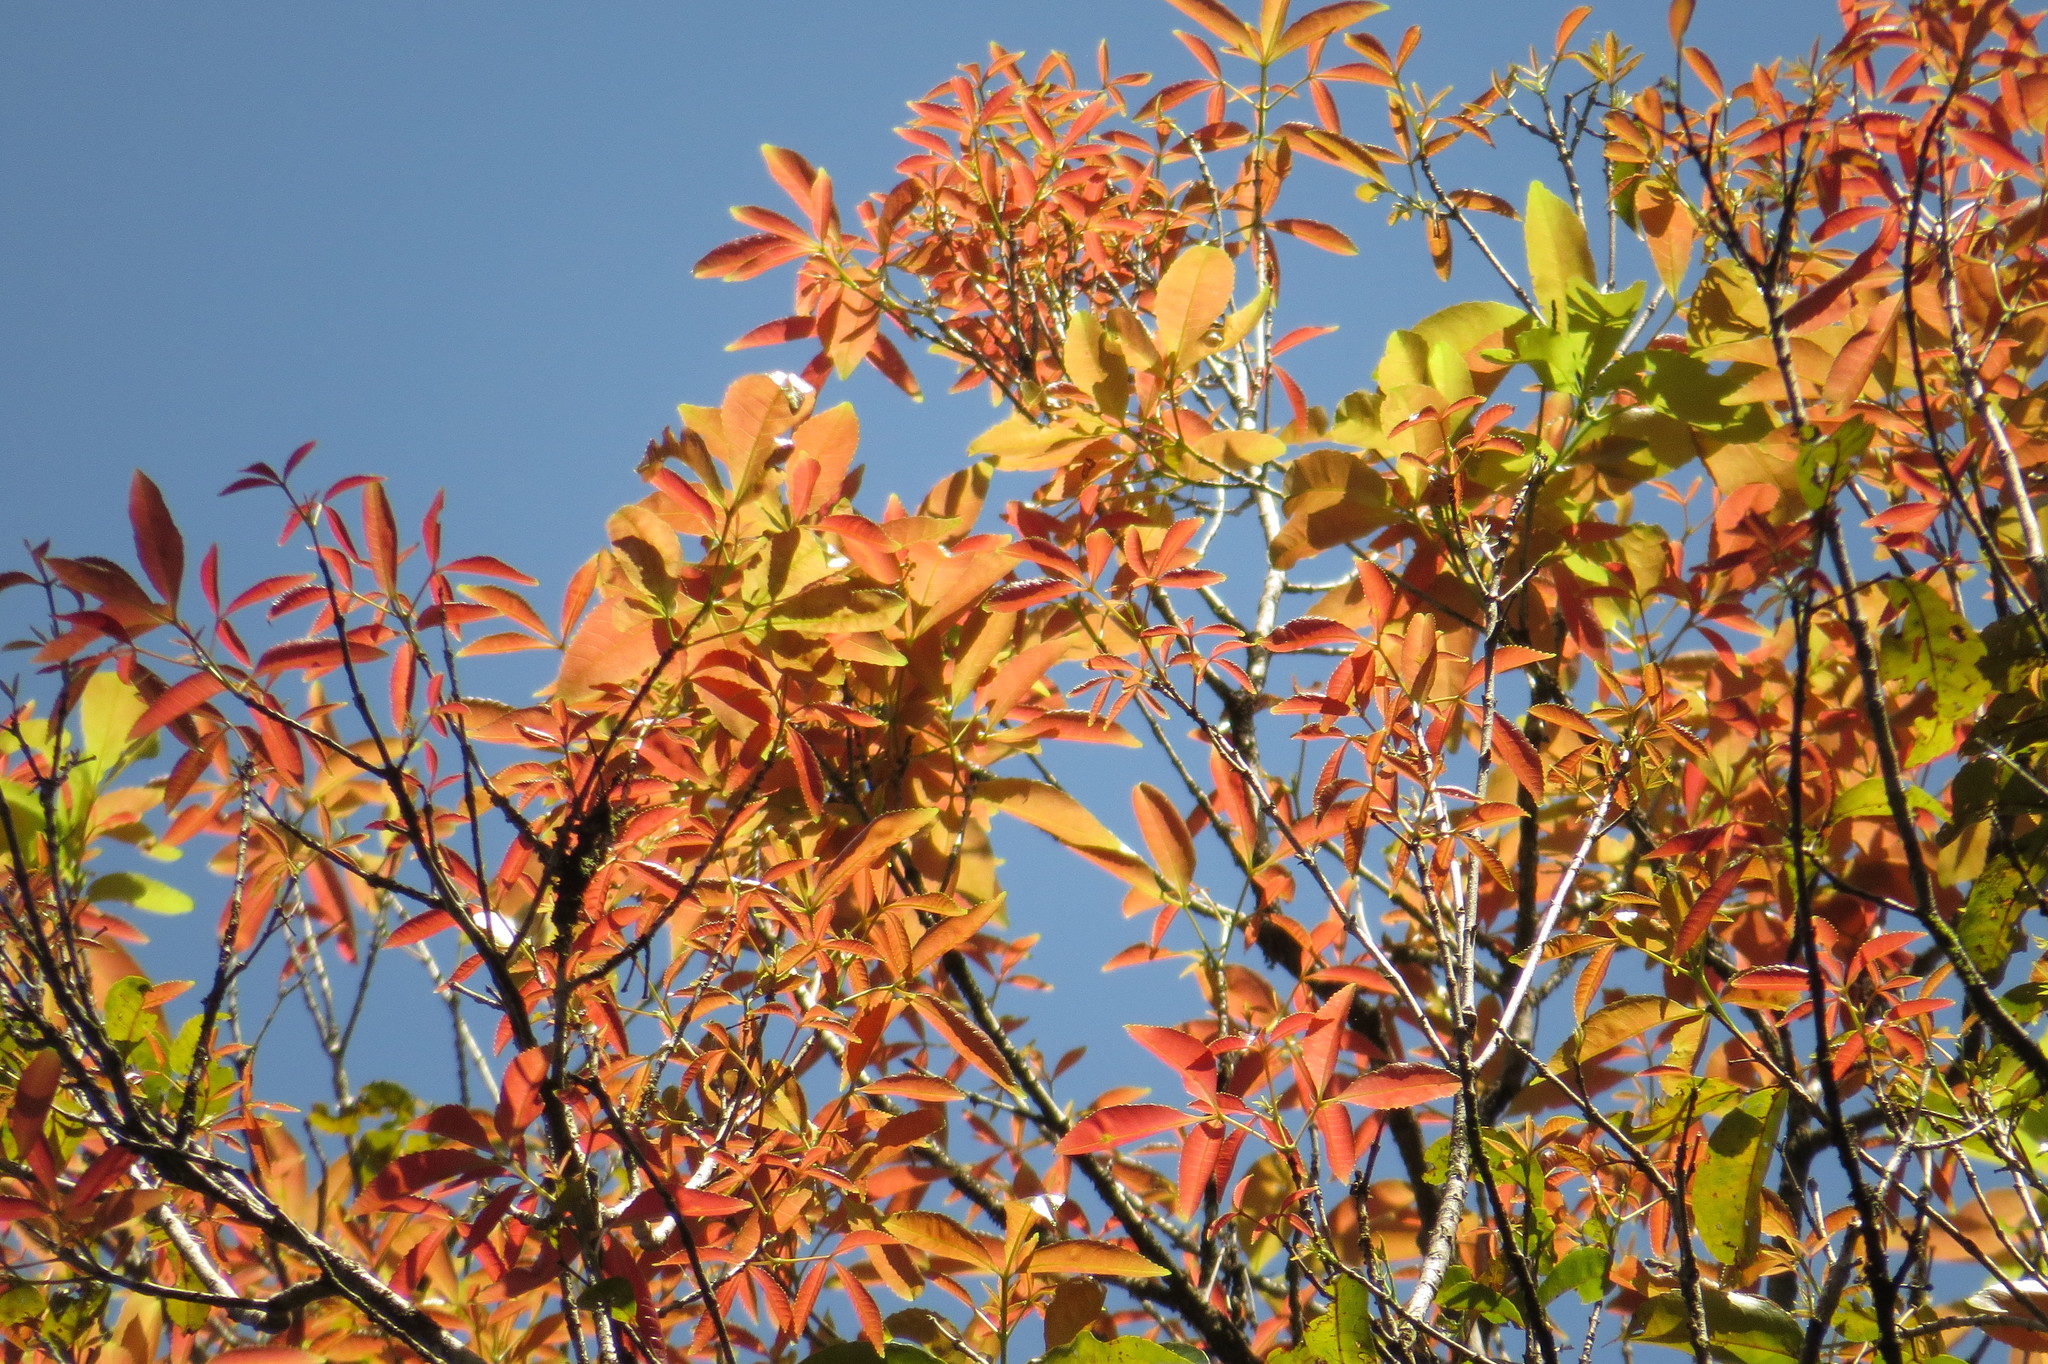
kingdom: Plantae
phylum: Tracheophyta
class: Magnoliopsida
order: Oxalidales
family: Cunoniaceae
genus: Pseudoweinmannia
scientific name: Pseudoweinmannia apetala
